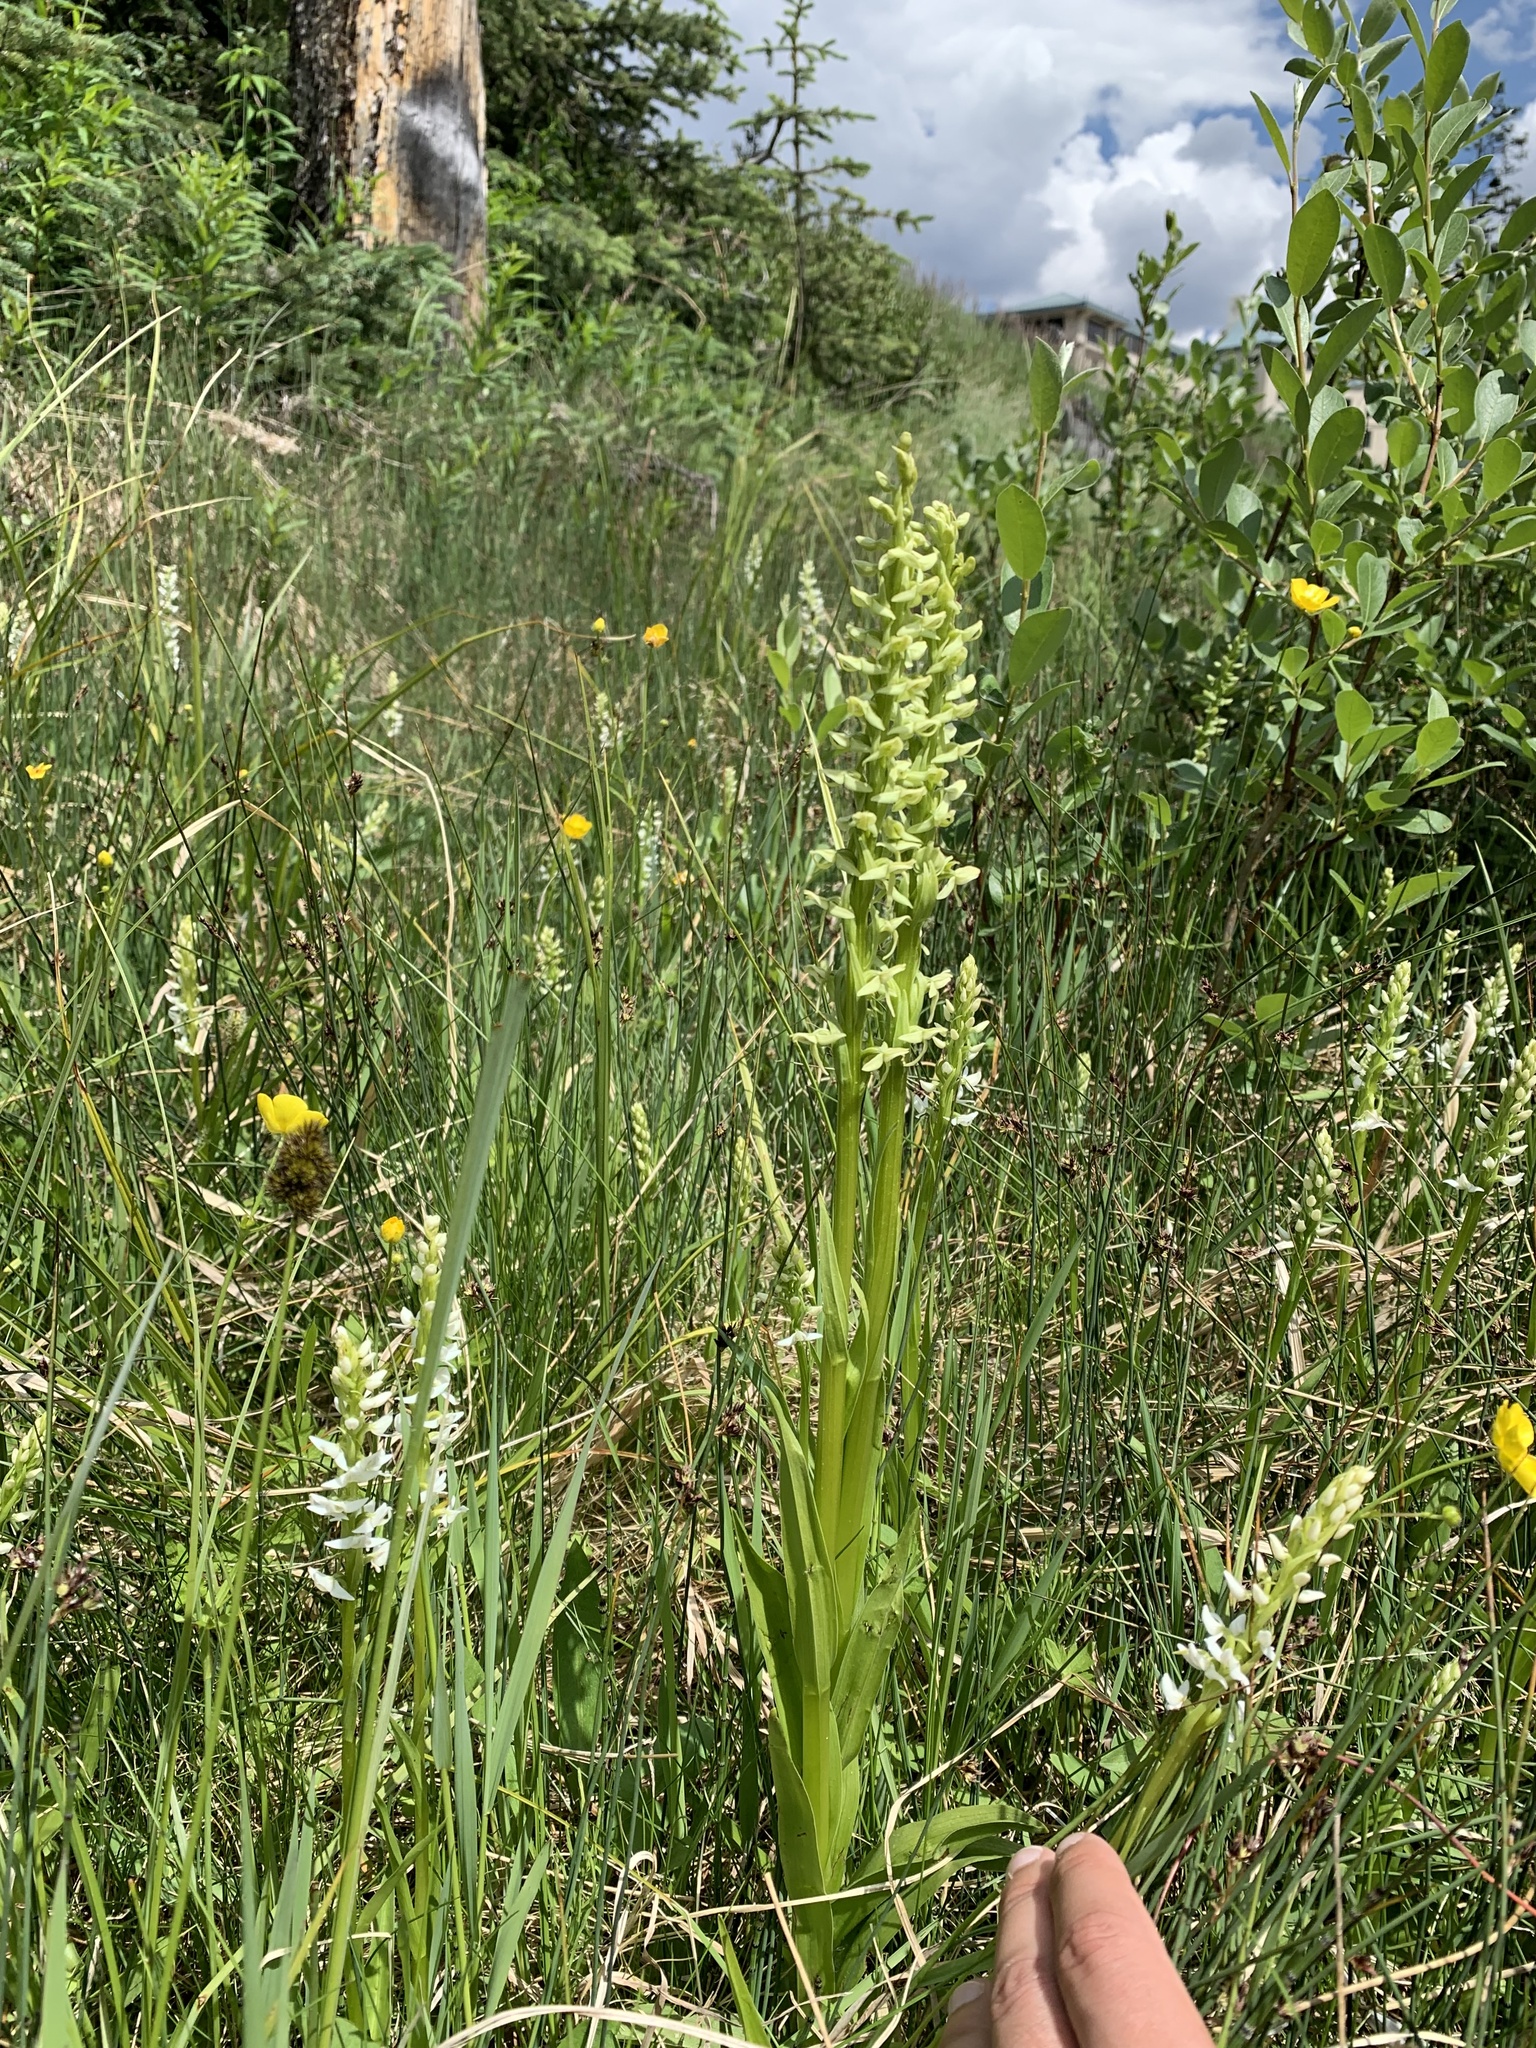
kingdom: Plantae
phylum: Tracheophyta
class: Liliopsida
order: Asparagales
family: Orchidaceae
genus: Platanthera
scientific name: Platanthera huronensis
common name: Fragrant green orchid
